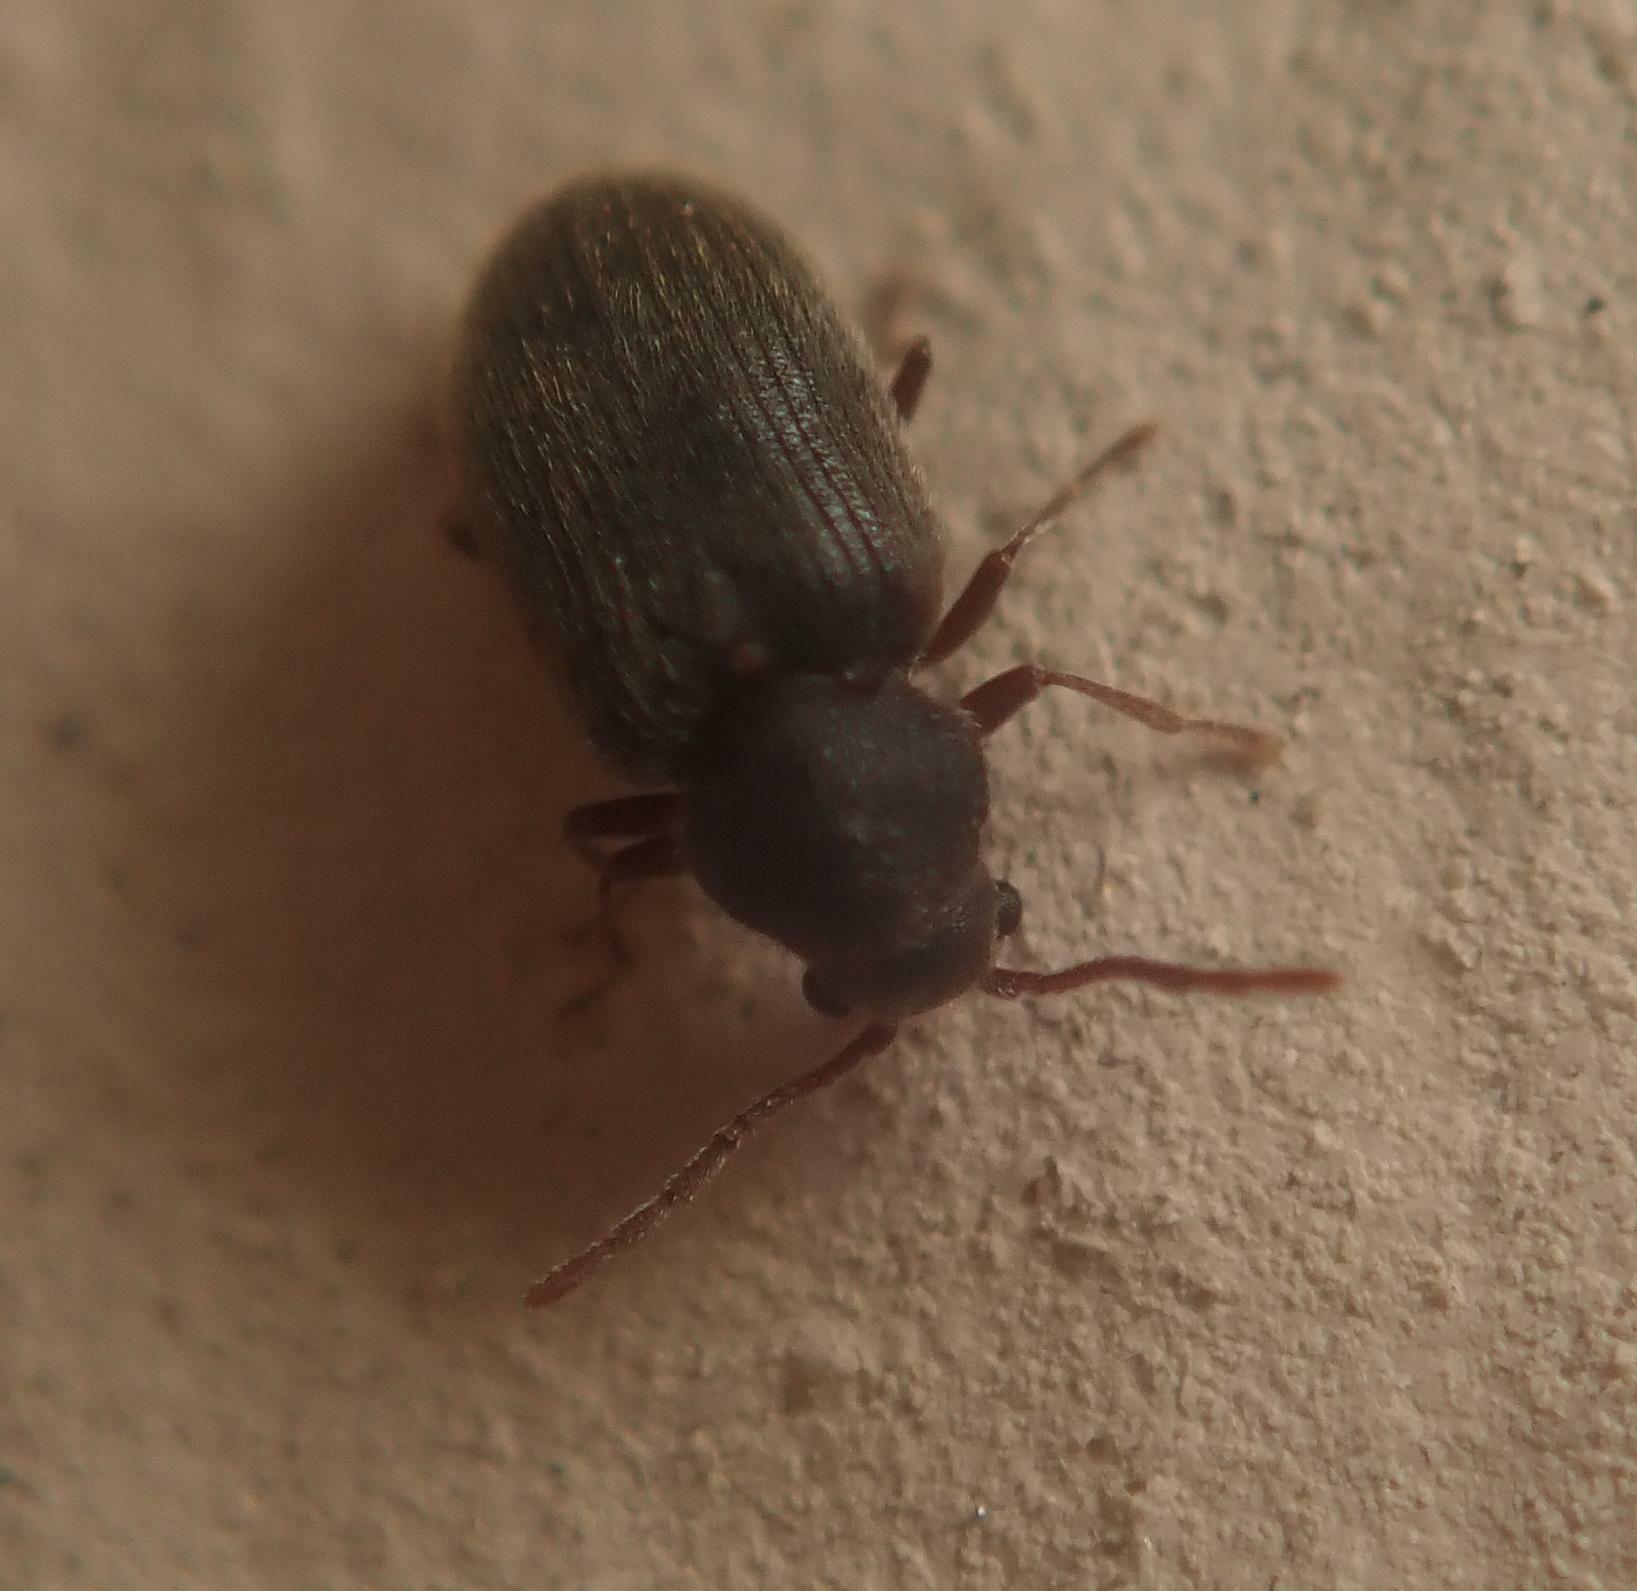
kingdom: Animalia
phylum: Arthropoda
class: Insecta
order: Coleoptera
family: Ptinidae
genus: Homophthalmus
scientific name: Homophthalmus rugicollis
